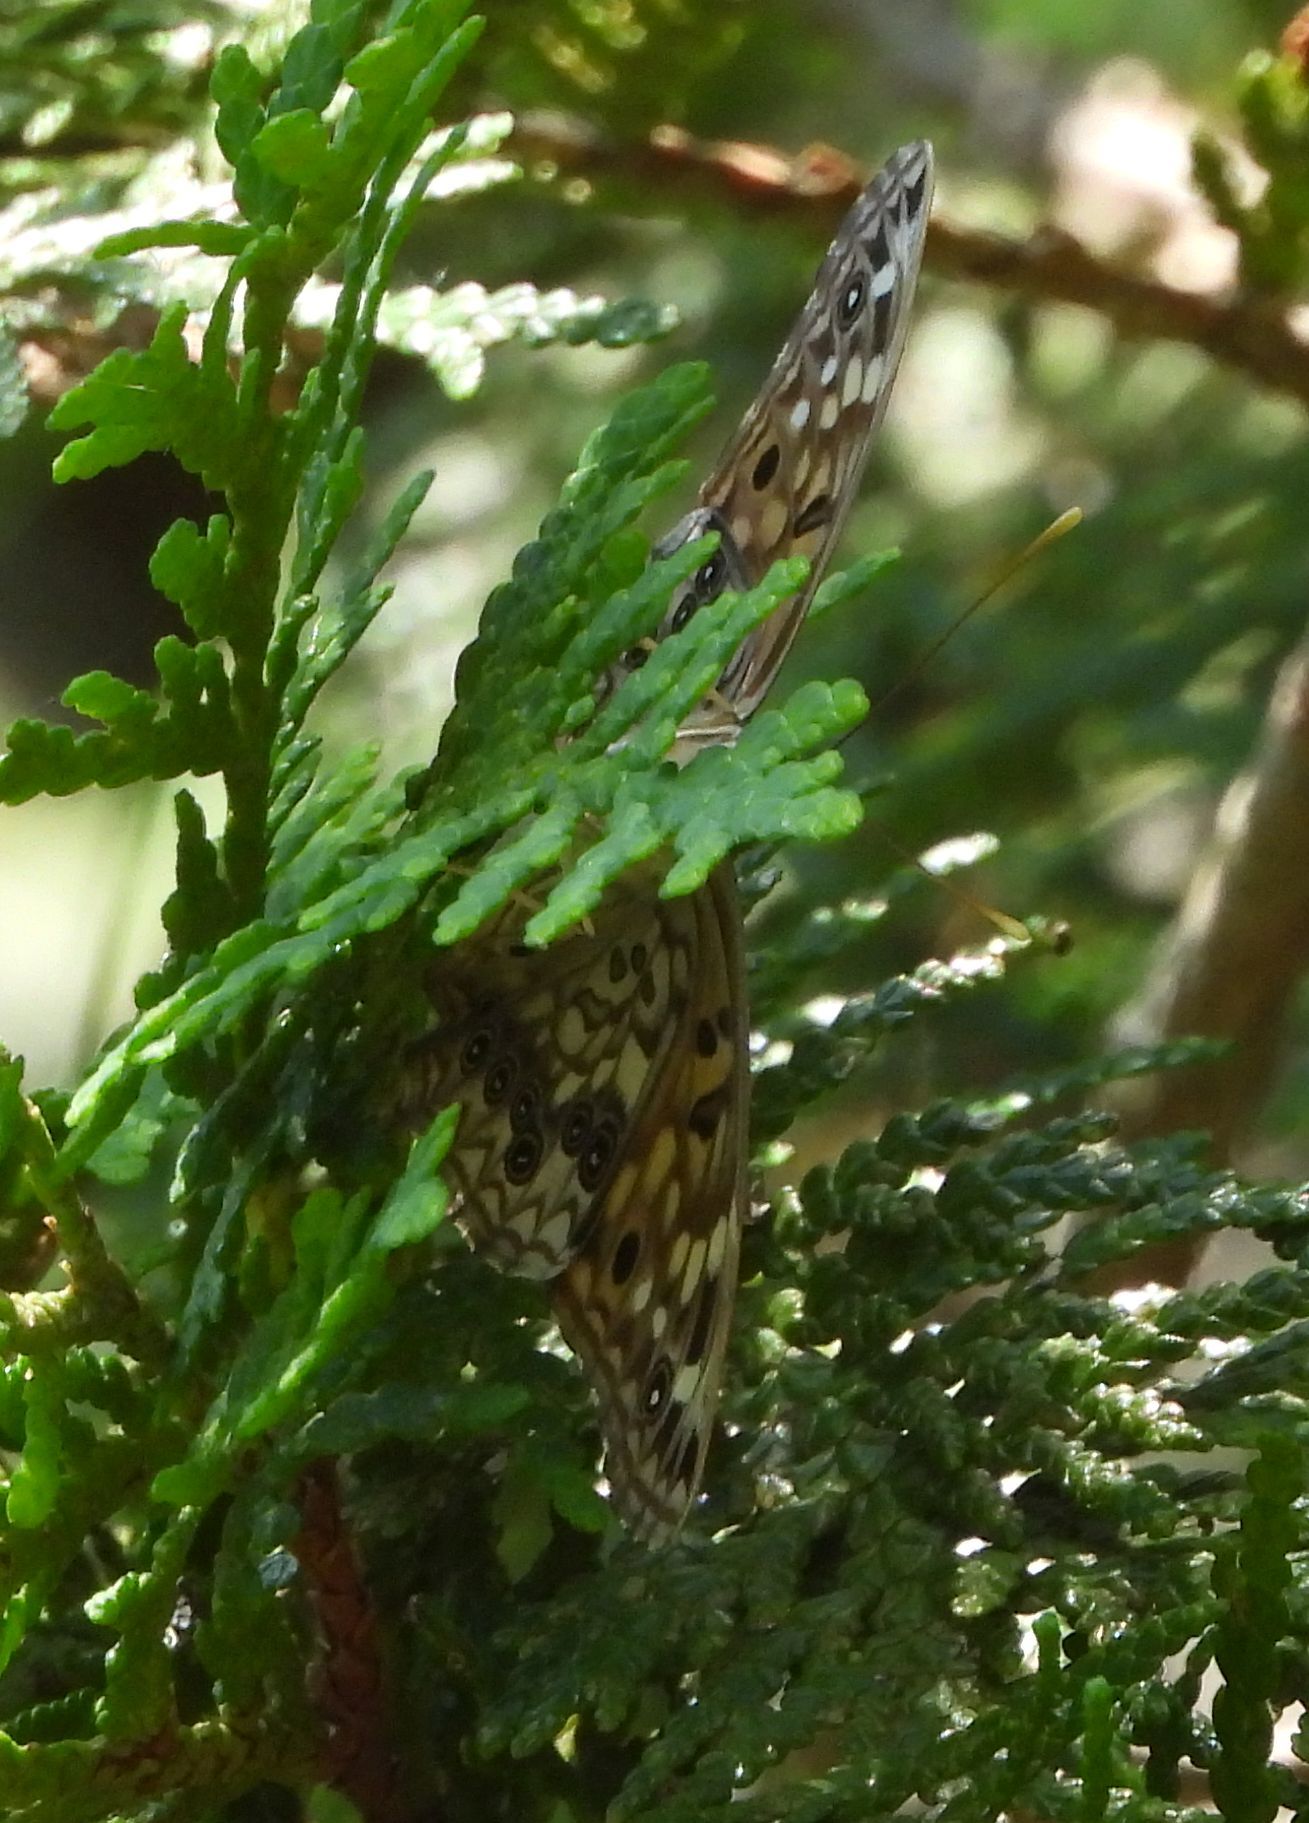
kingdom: Animalia
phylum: Arthropoda
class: Insecta
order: Lepidoptera
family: Nymphalidae
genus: Asterocampa
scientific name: Asterocampa celtis
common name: Hackberry emperor
